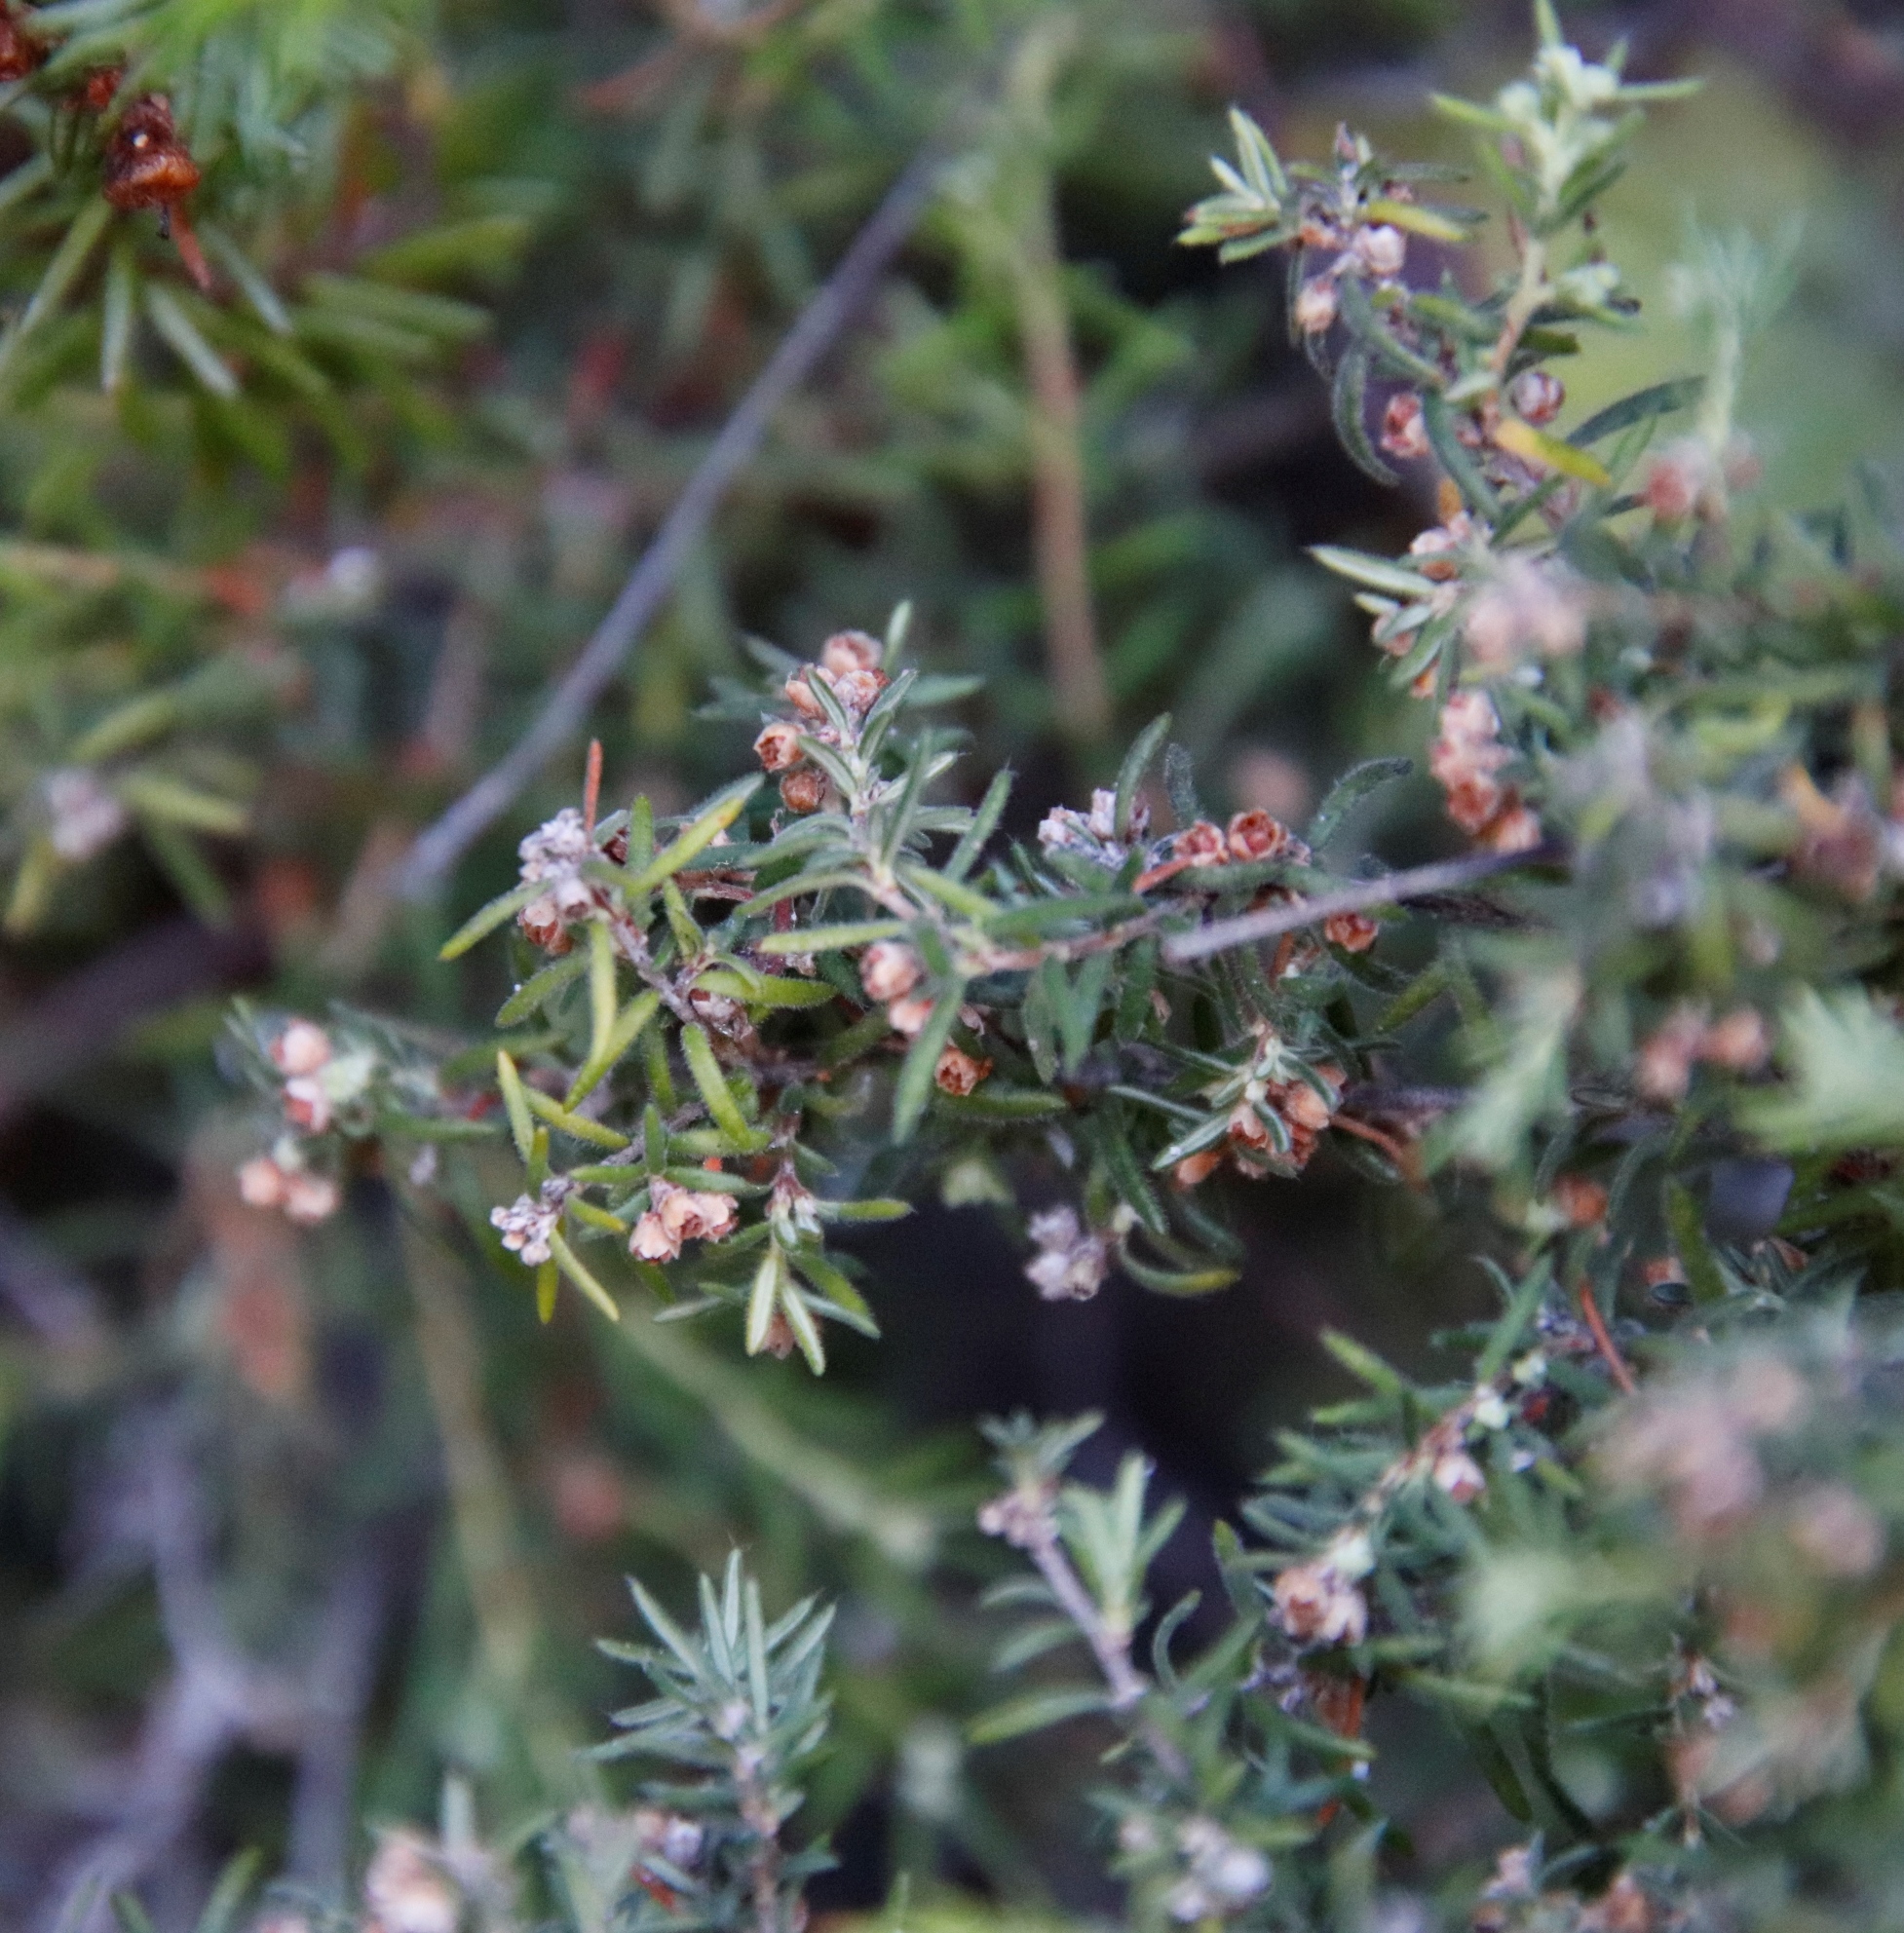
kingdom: Plantae
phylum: Tracheophyta
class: Magnoliopsida
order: Ericales
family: Ericaceae
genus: Erica
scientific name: Erica philippioides
